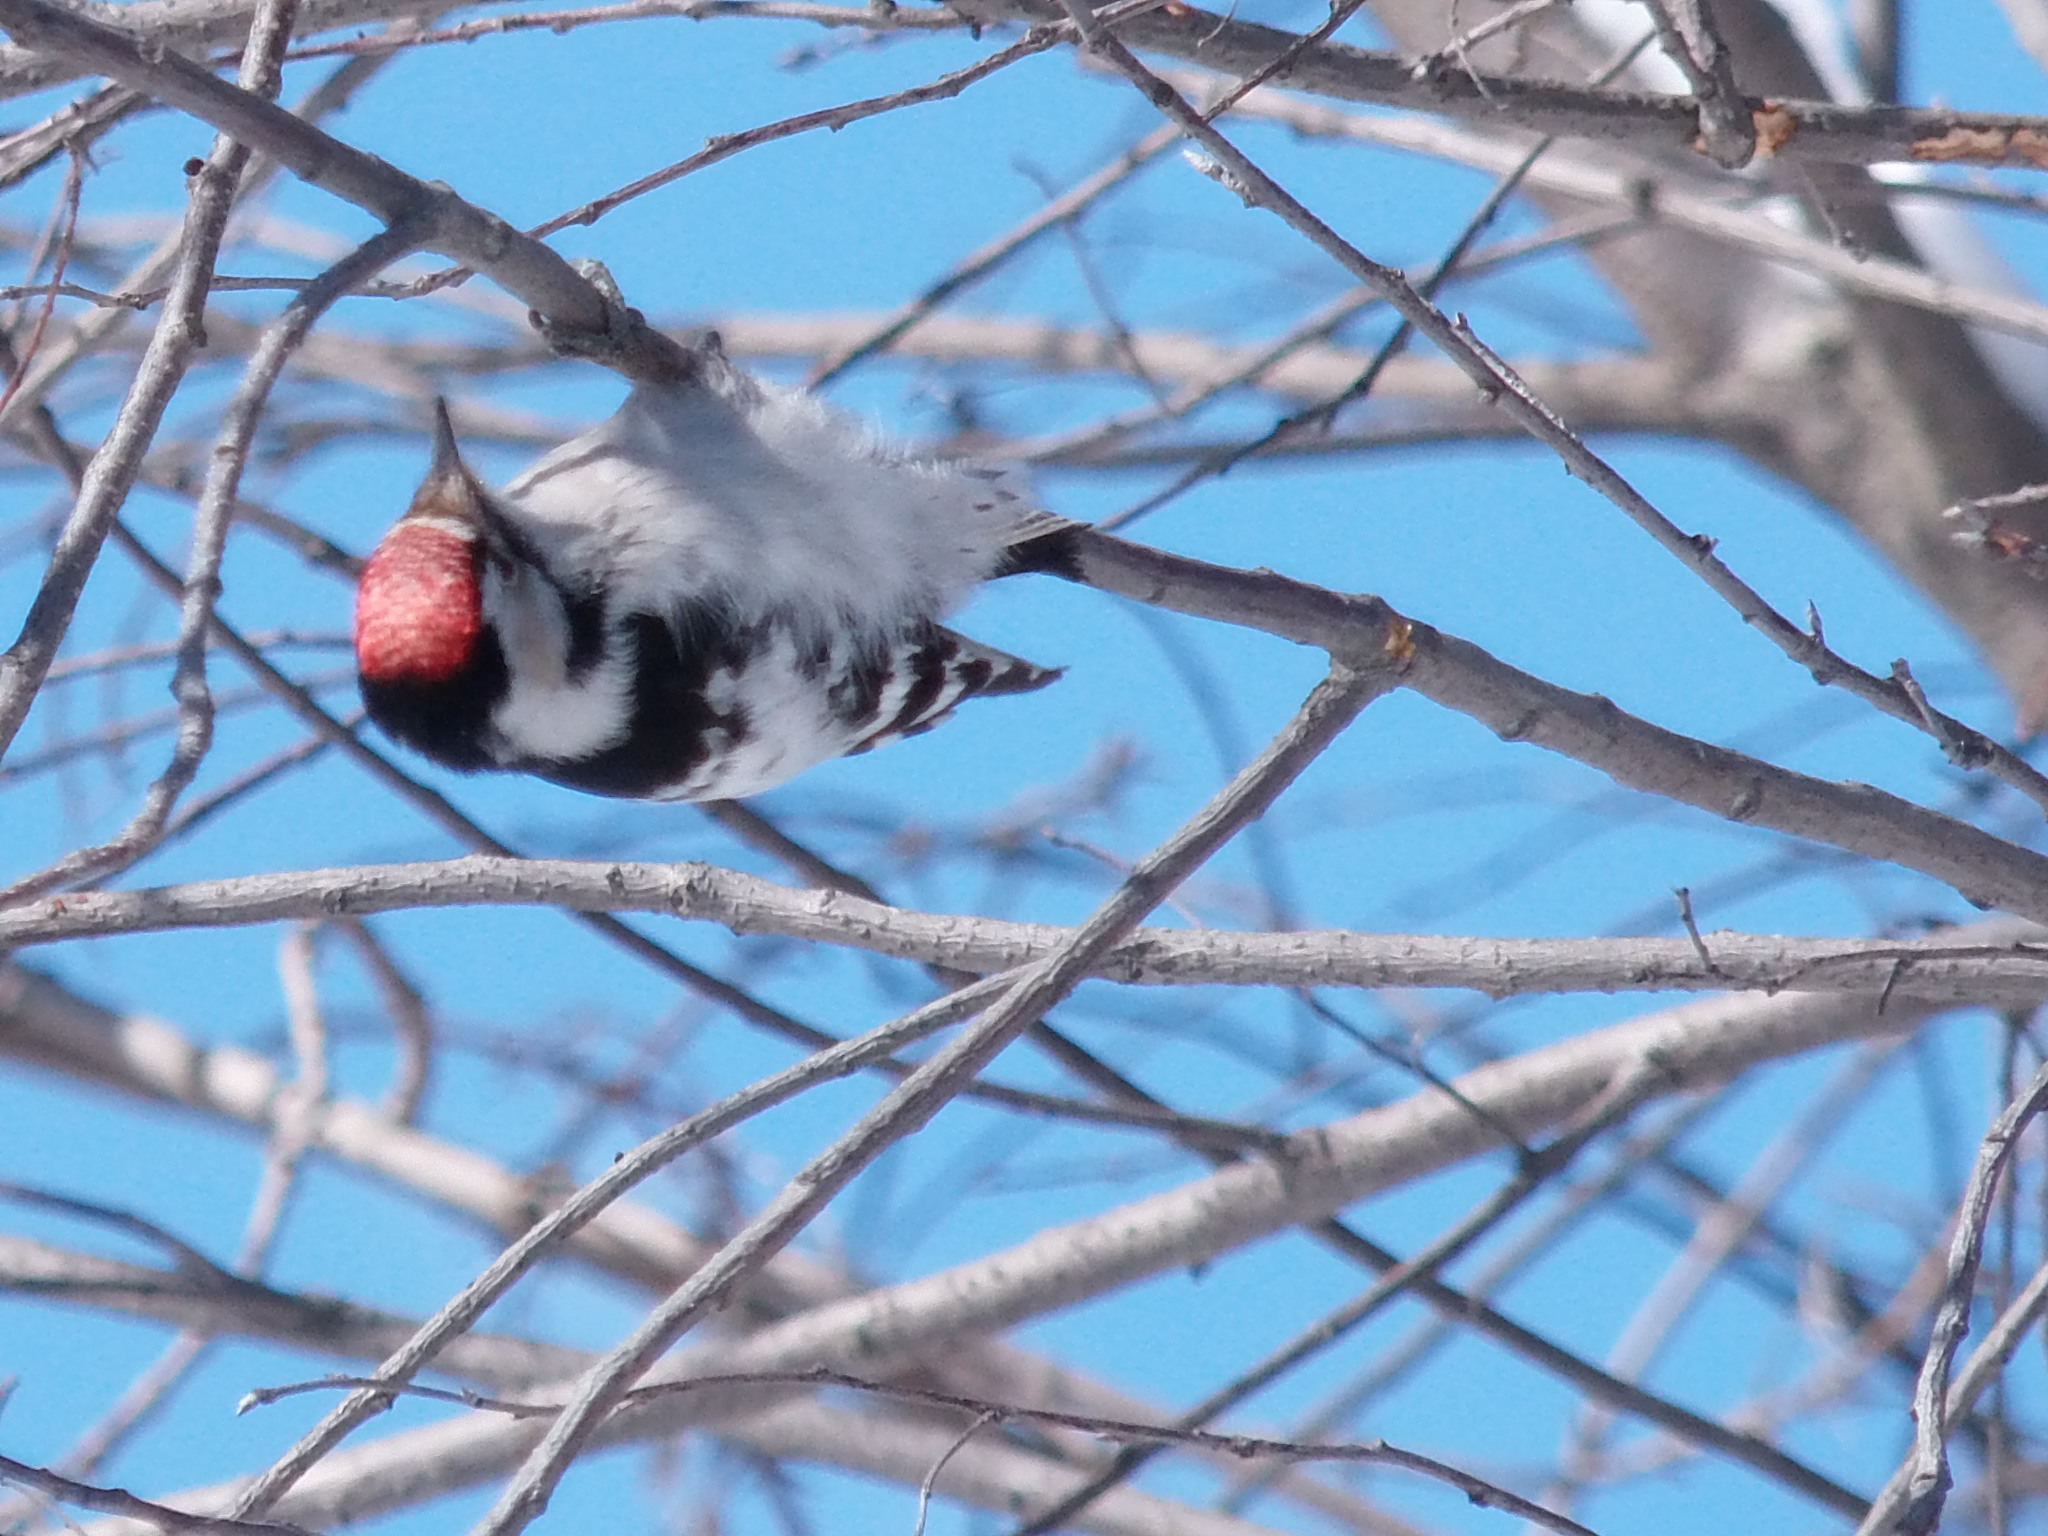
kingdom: Animalia
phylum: Chordata
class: Aves
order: Piciformes
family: Picidae
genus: Dryobates
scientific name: Dryobates minor
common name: Lesser spotted woodpecker
